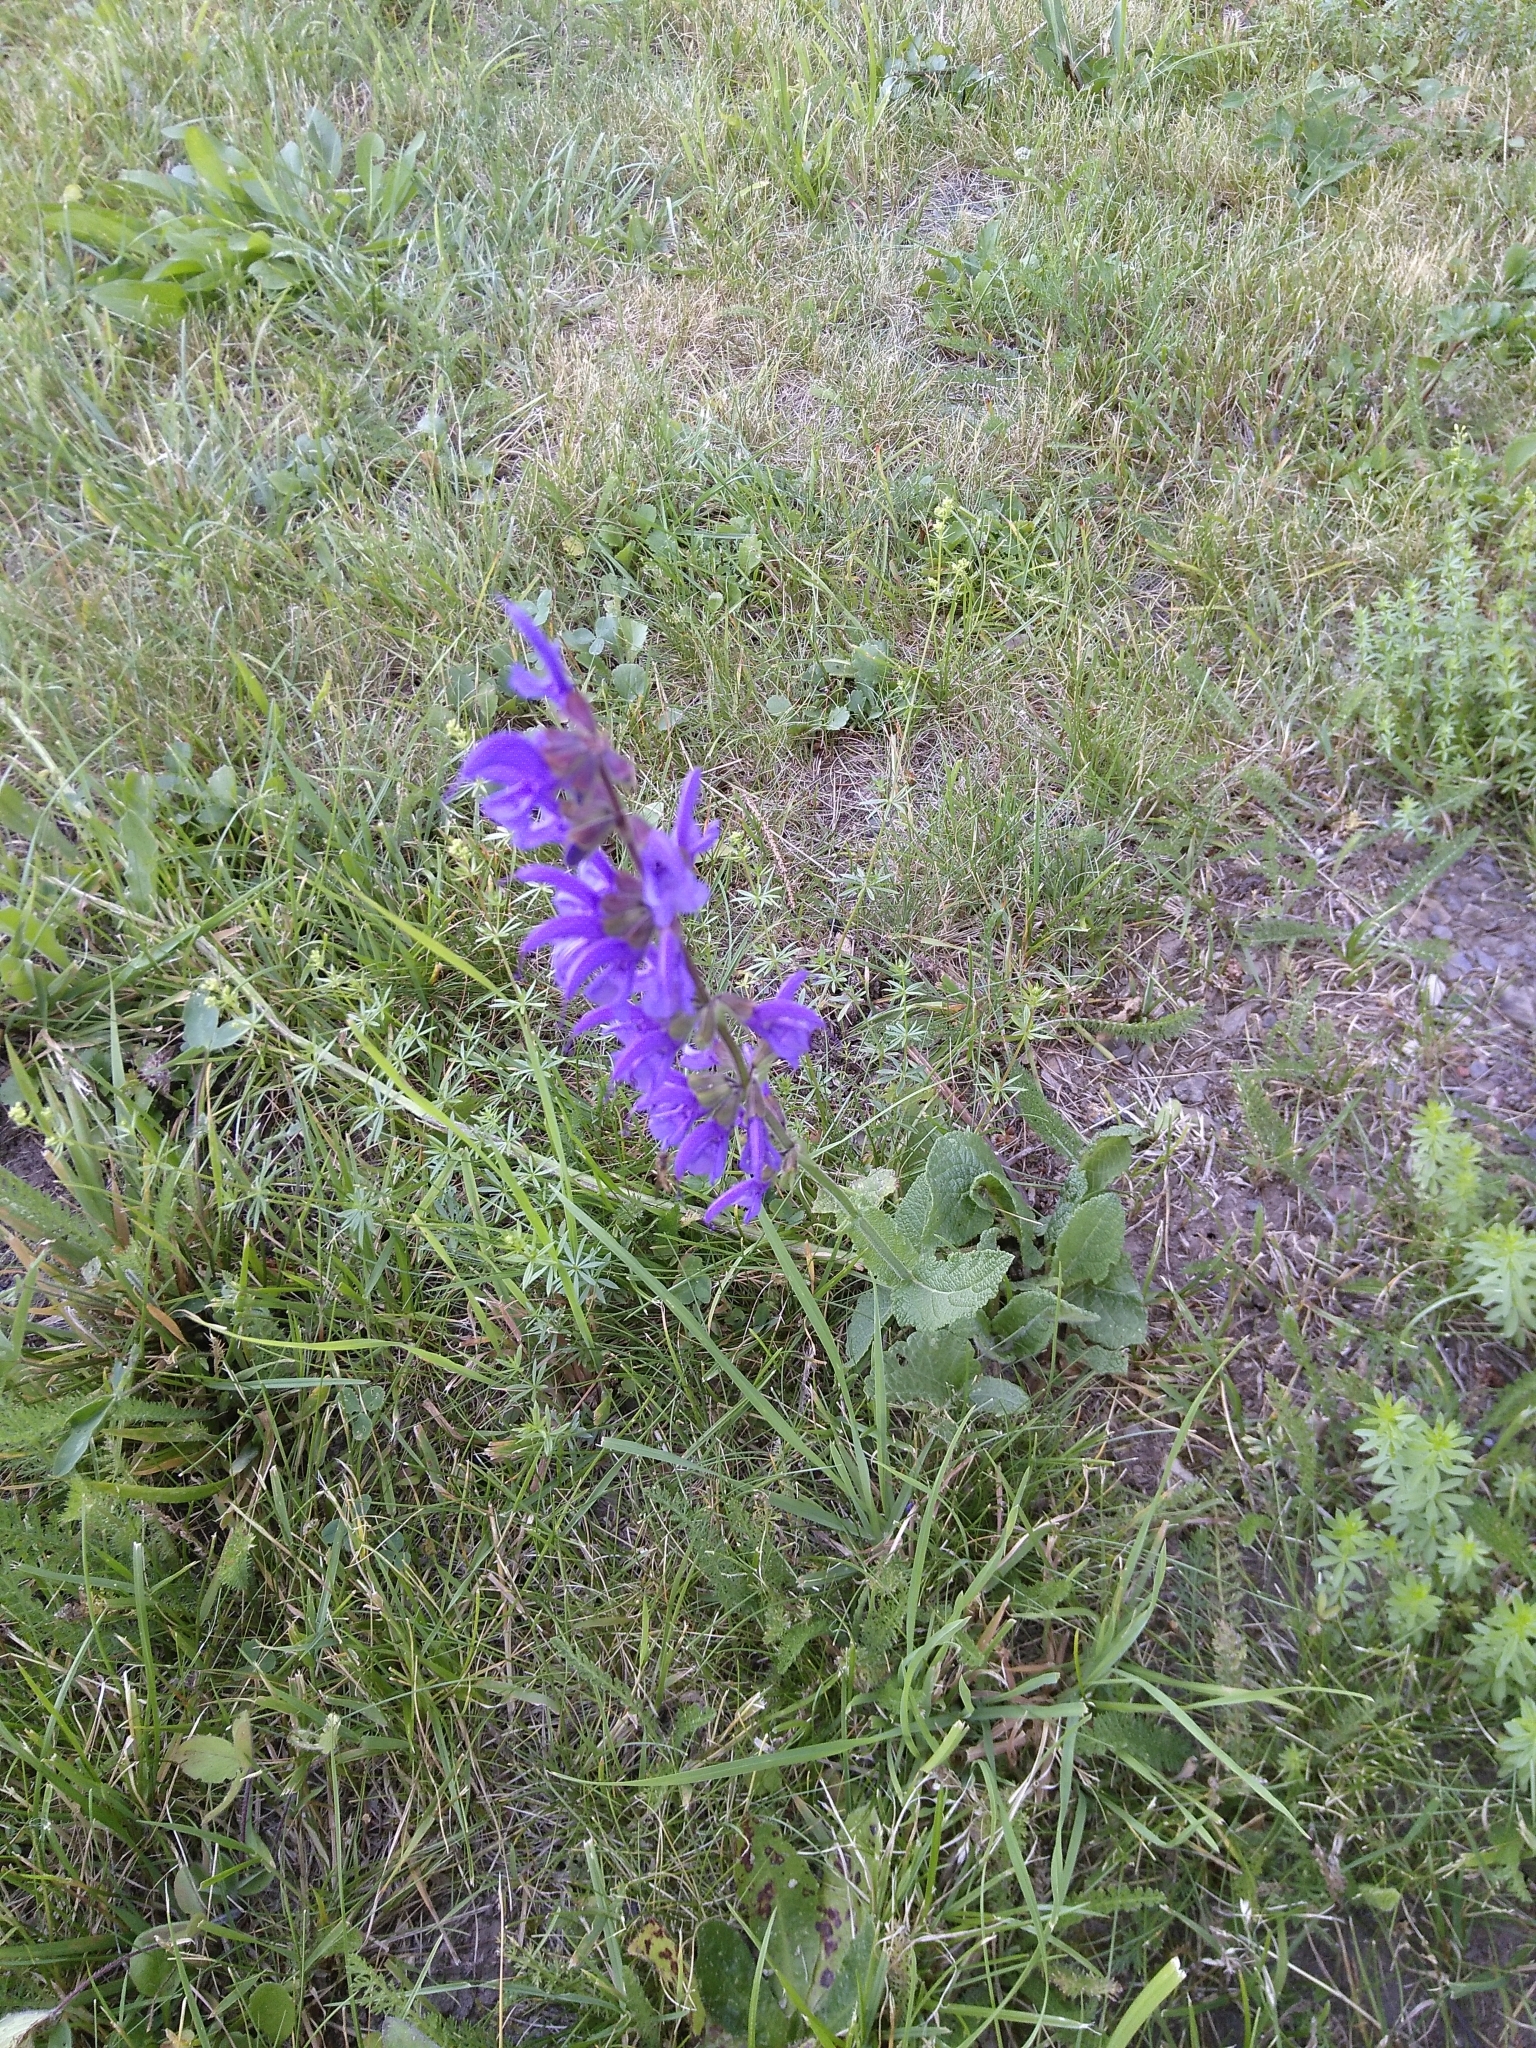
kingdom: Plantae
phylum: Tracheophyta
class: Magnoliopsida
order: Lamiales
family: Lamiaceae
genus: Salvia
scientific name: Salvia pratensis
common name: Meadow sage
